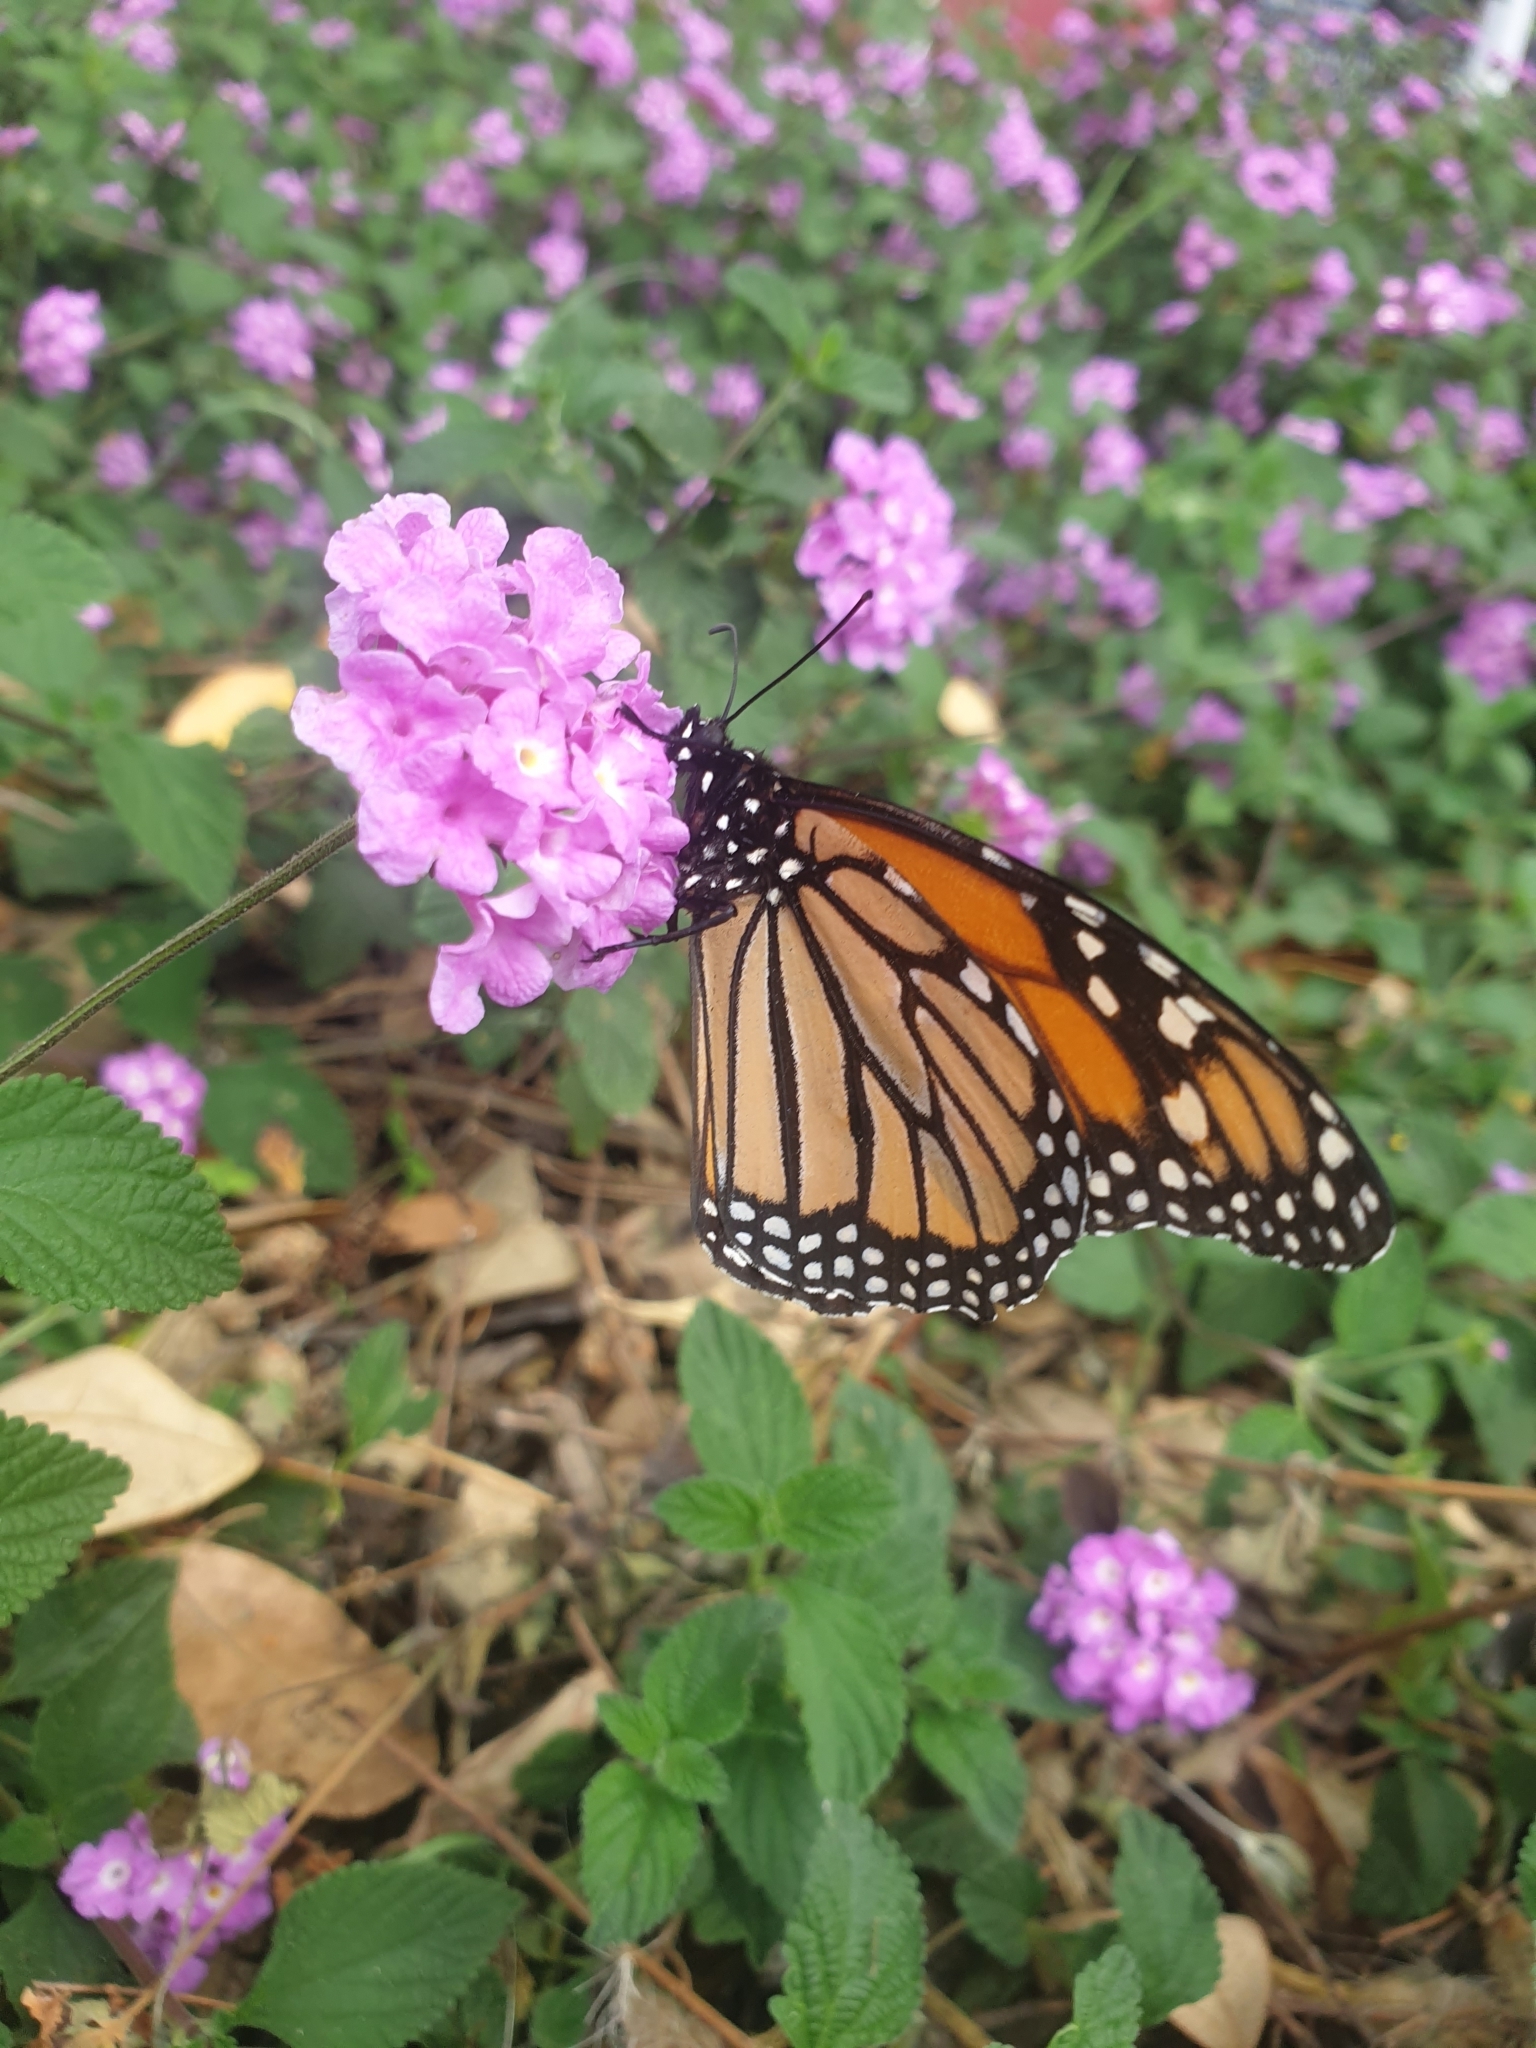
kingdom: Animalia
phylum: Arthropoda
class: Insecta
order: Lepidoptera
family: Nymphalidae
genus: Danaus
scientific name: Danaus plexippus
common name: Monarch
